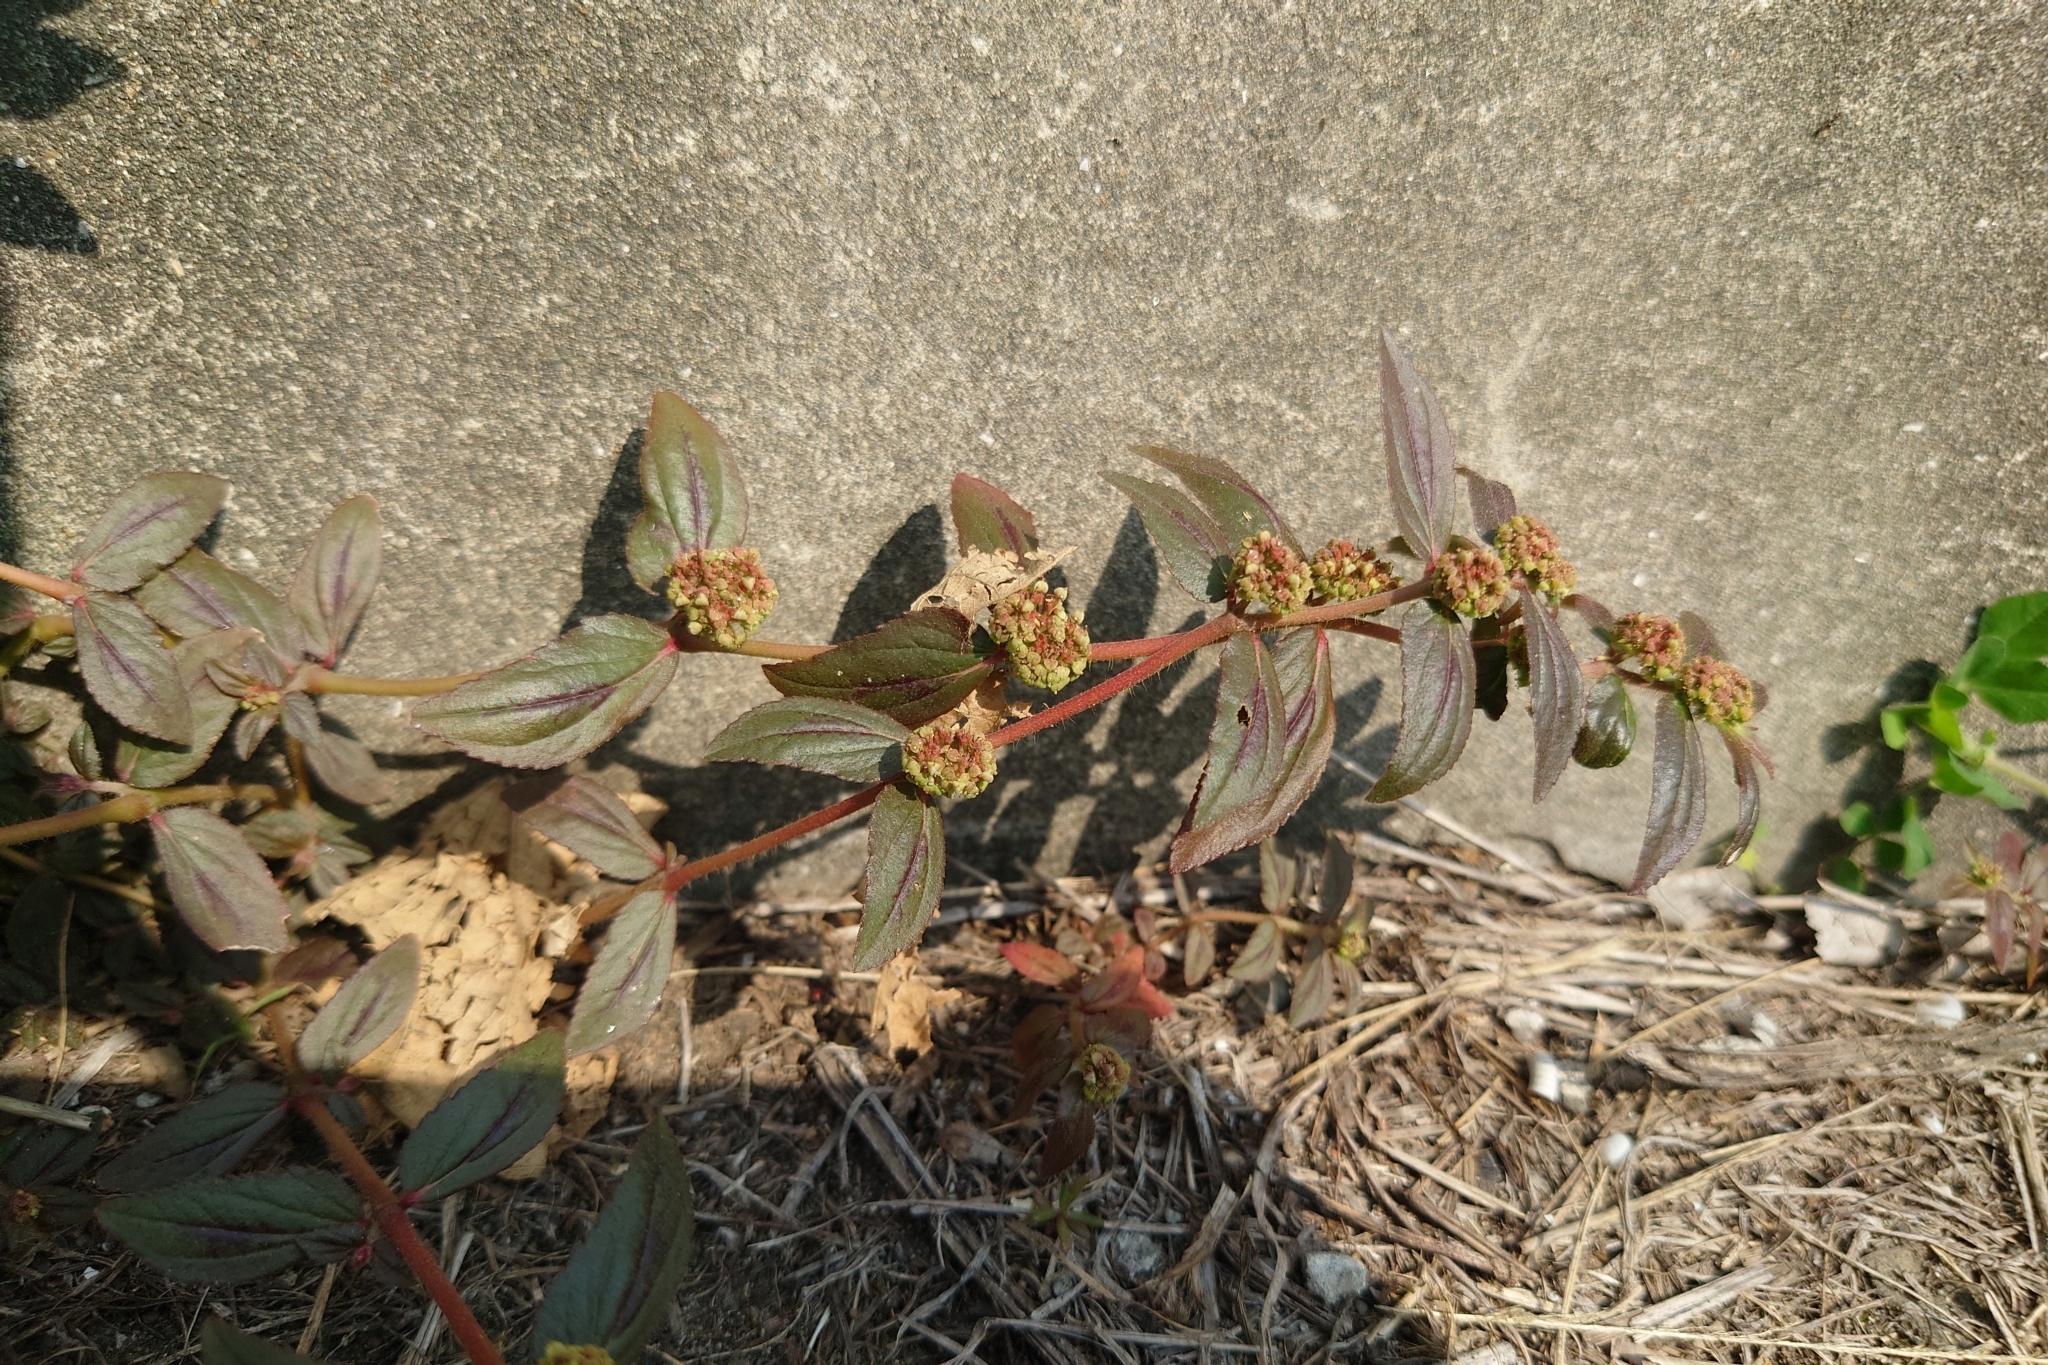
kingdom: Plantae
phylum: Tracheophyta
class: Magnoliopsida
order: Malpighiales
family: Euphorbiaceae
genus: Euphorbia
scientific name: Euphorbia hirta
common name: Pillpod sandmat
